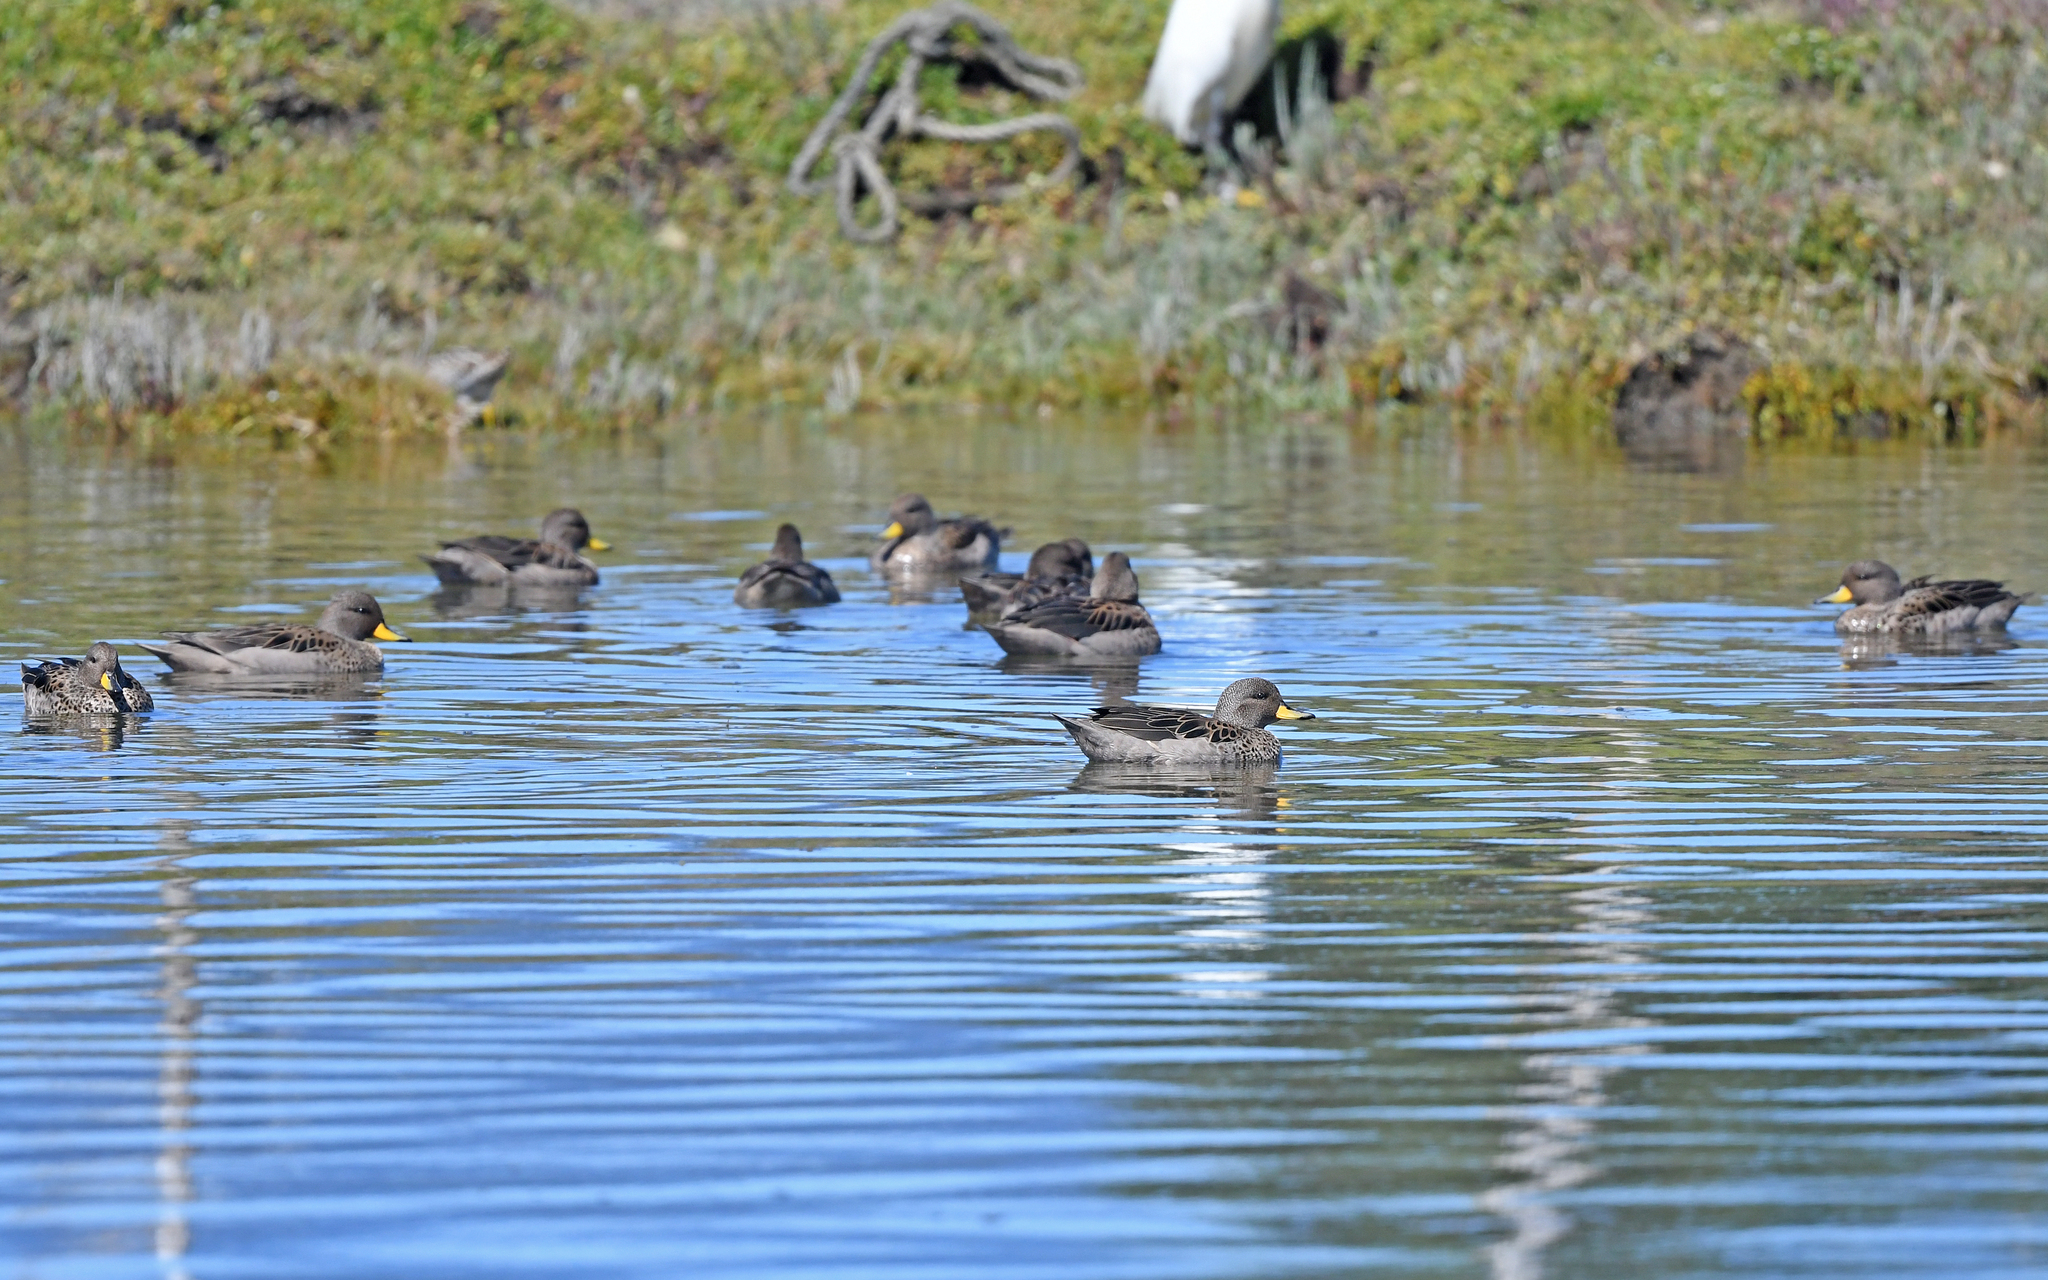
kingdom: Animalia
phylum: Chordata
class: Aves
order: Anseriformes
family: Anatidae
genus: Anas
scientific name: Anas flavirostris
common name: Yellow-billed teal
